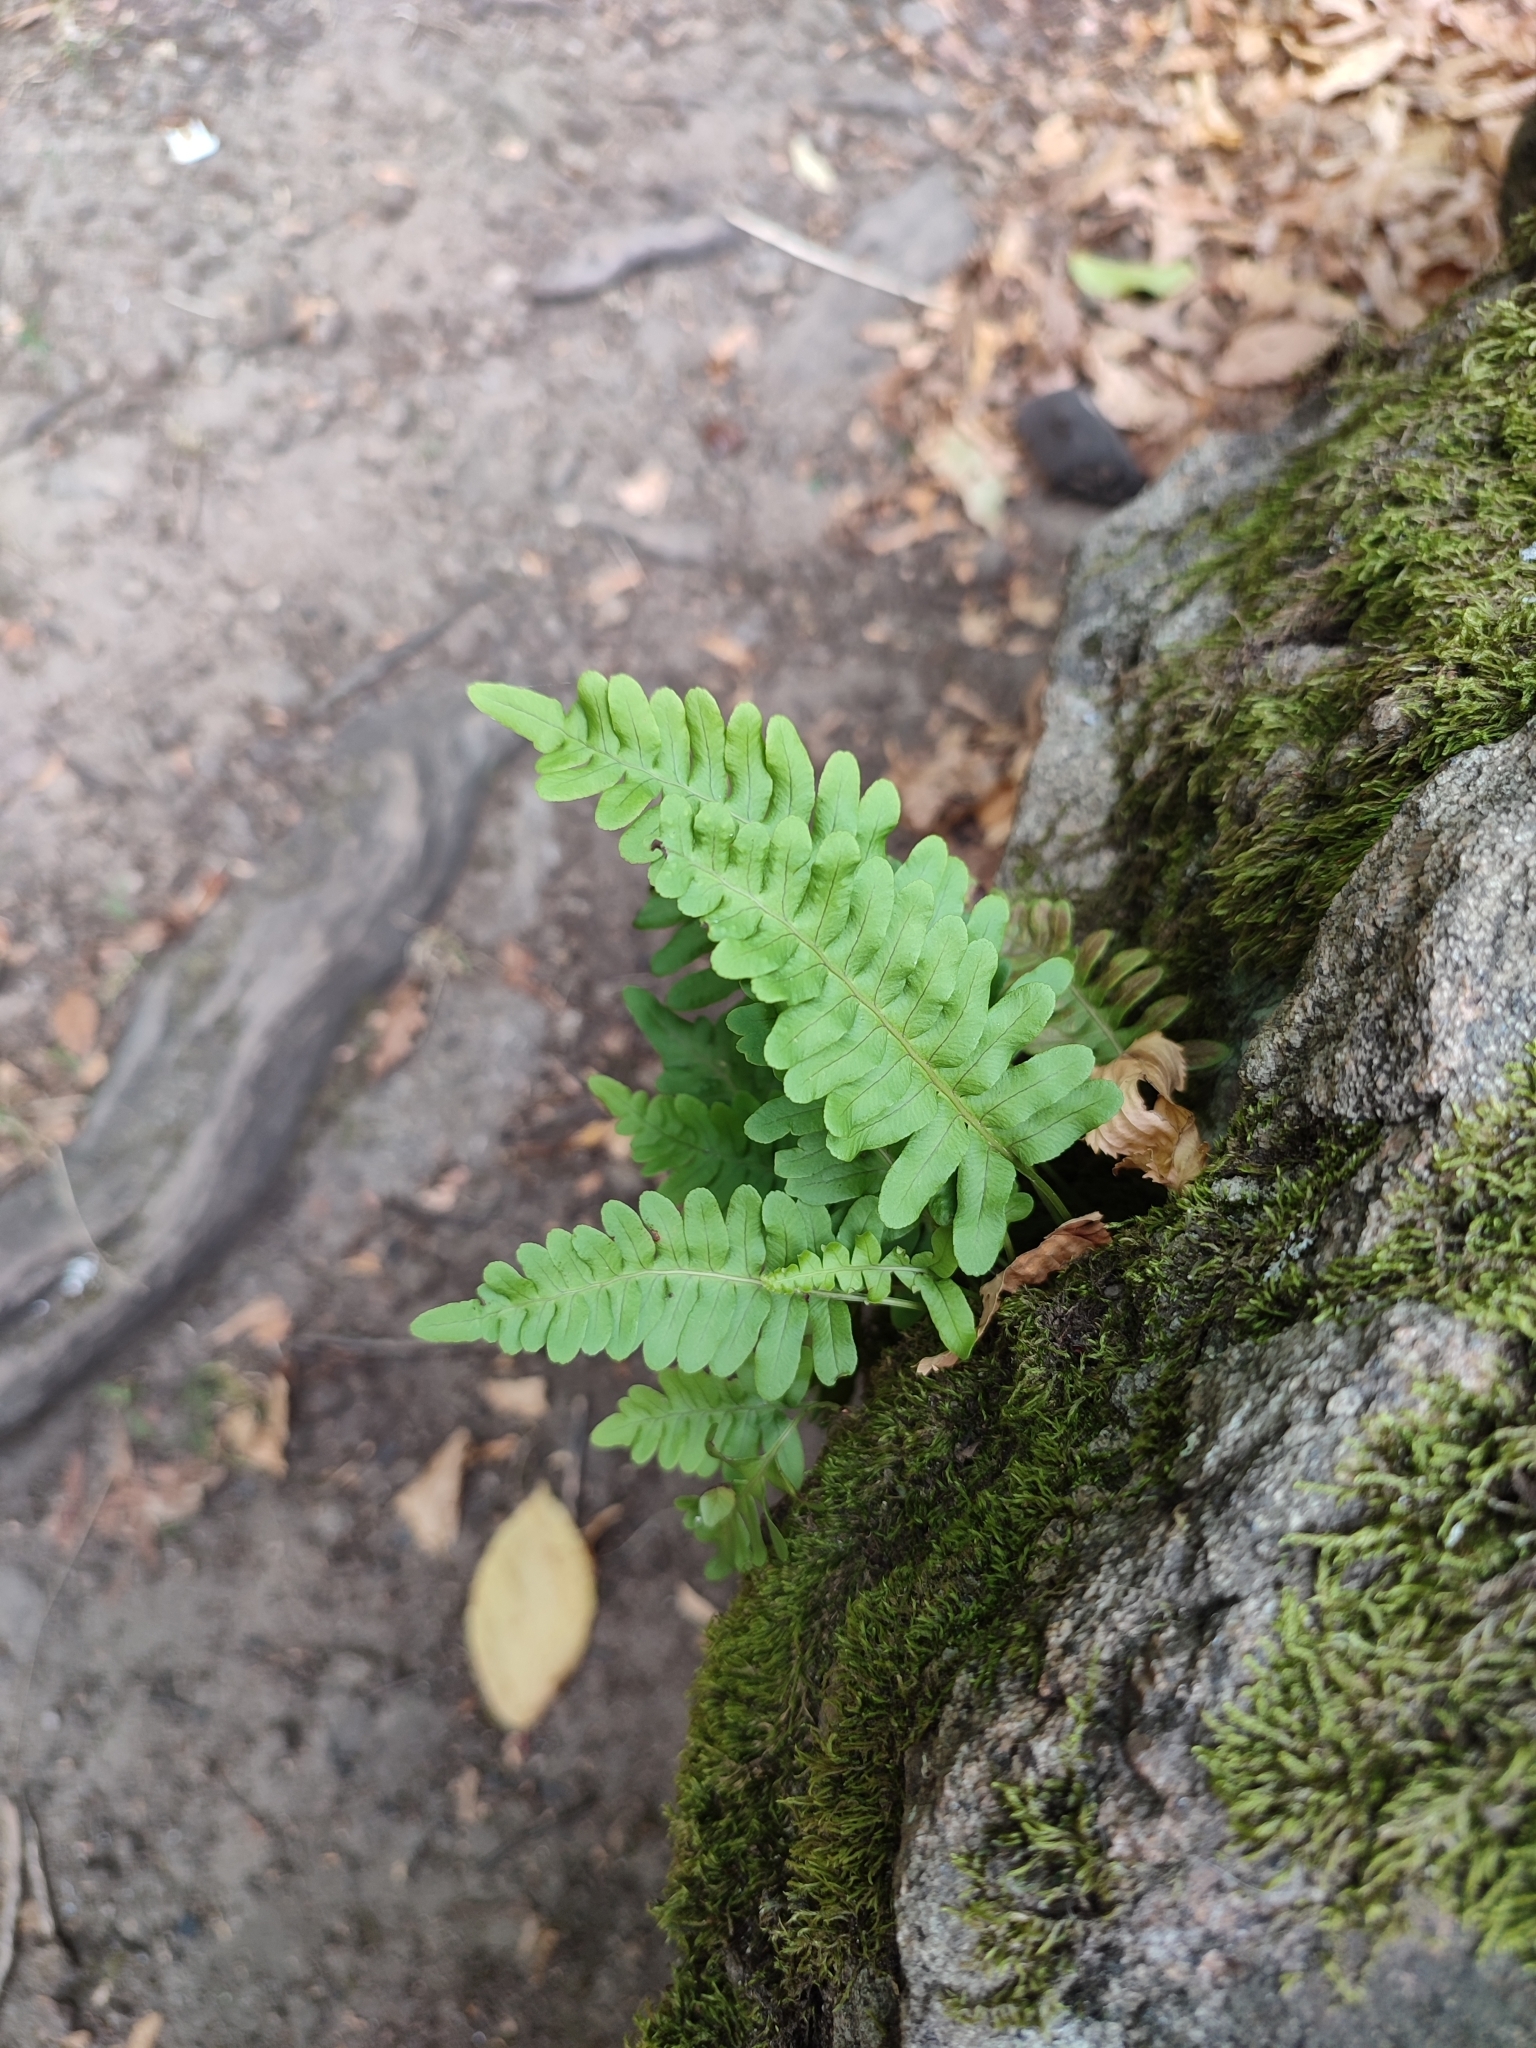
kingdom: Plantae
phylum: Tracheophyta
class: Polypodiopsida
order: Polypodiales
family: Polypodiaceae
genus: Polypodium
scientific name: Polypodium vulgare
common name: Common polypody
